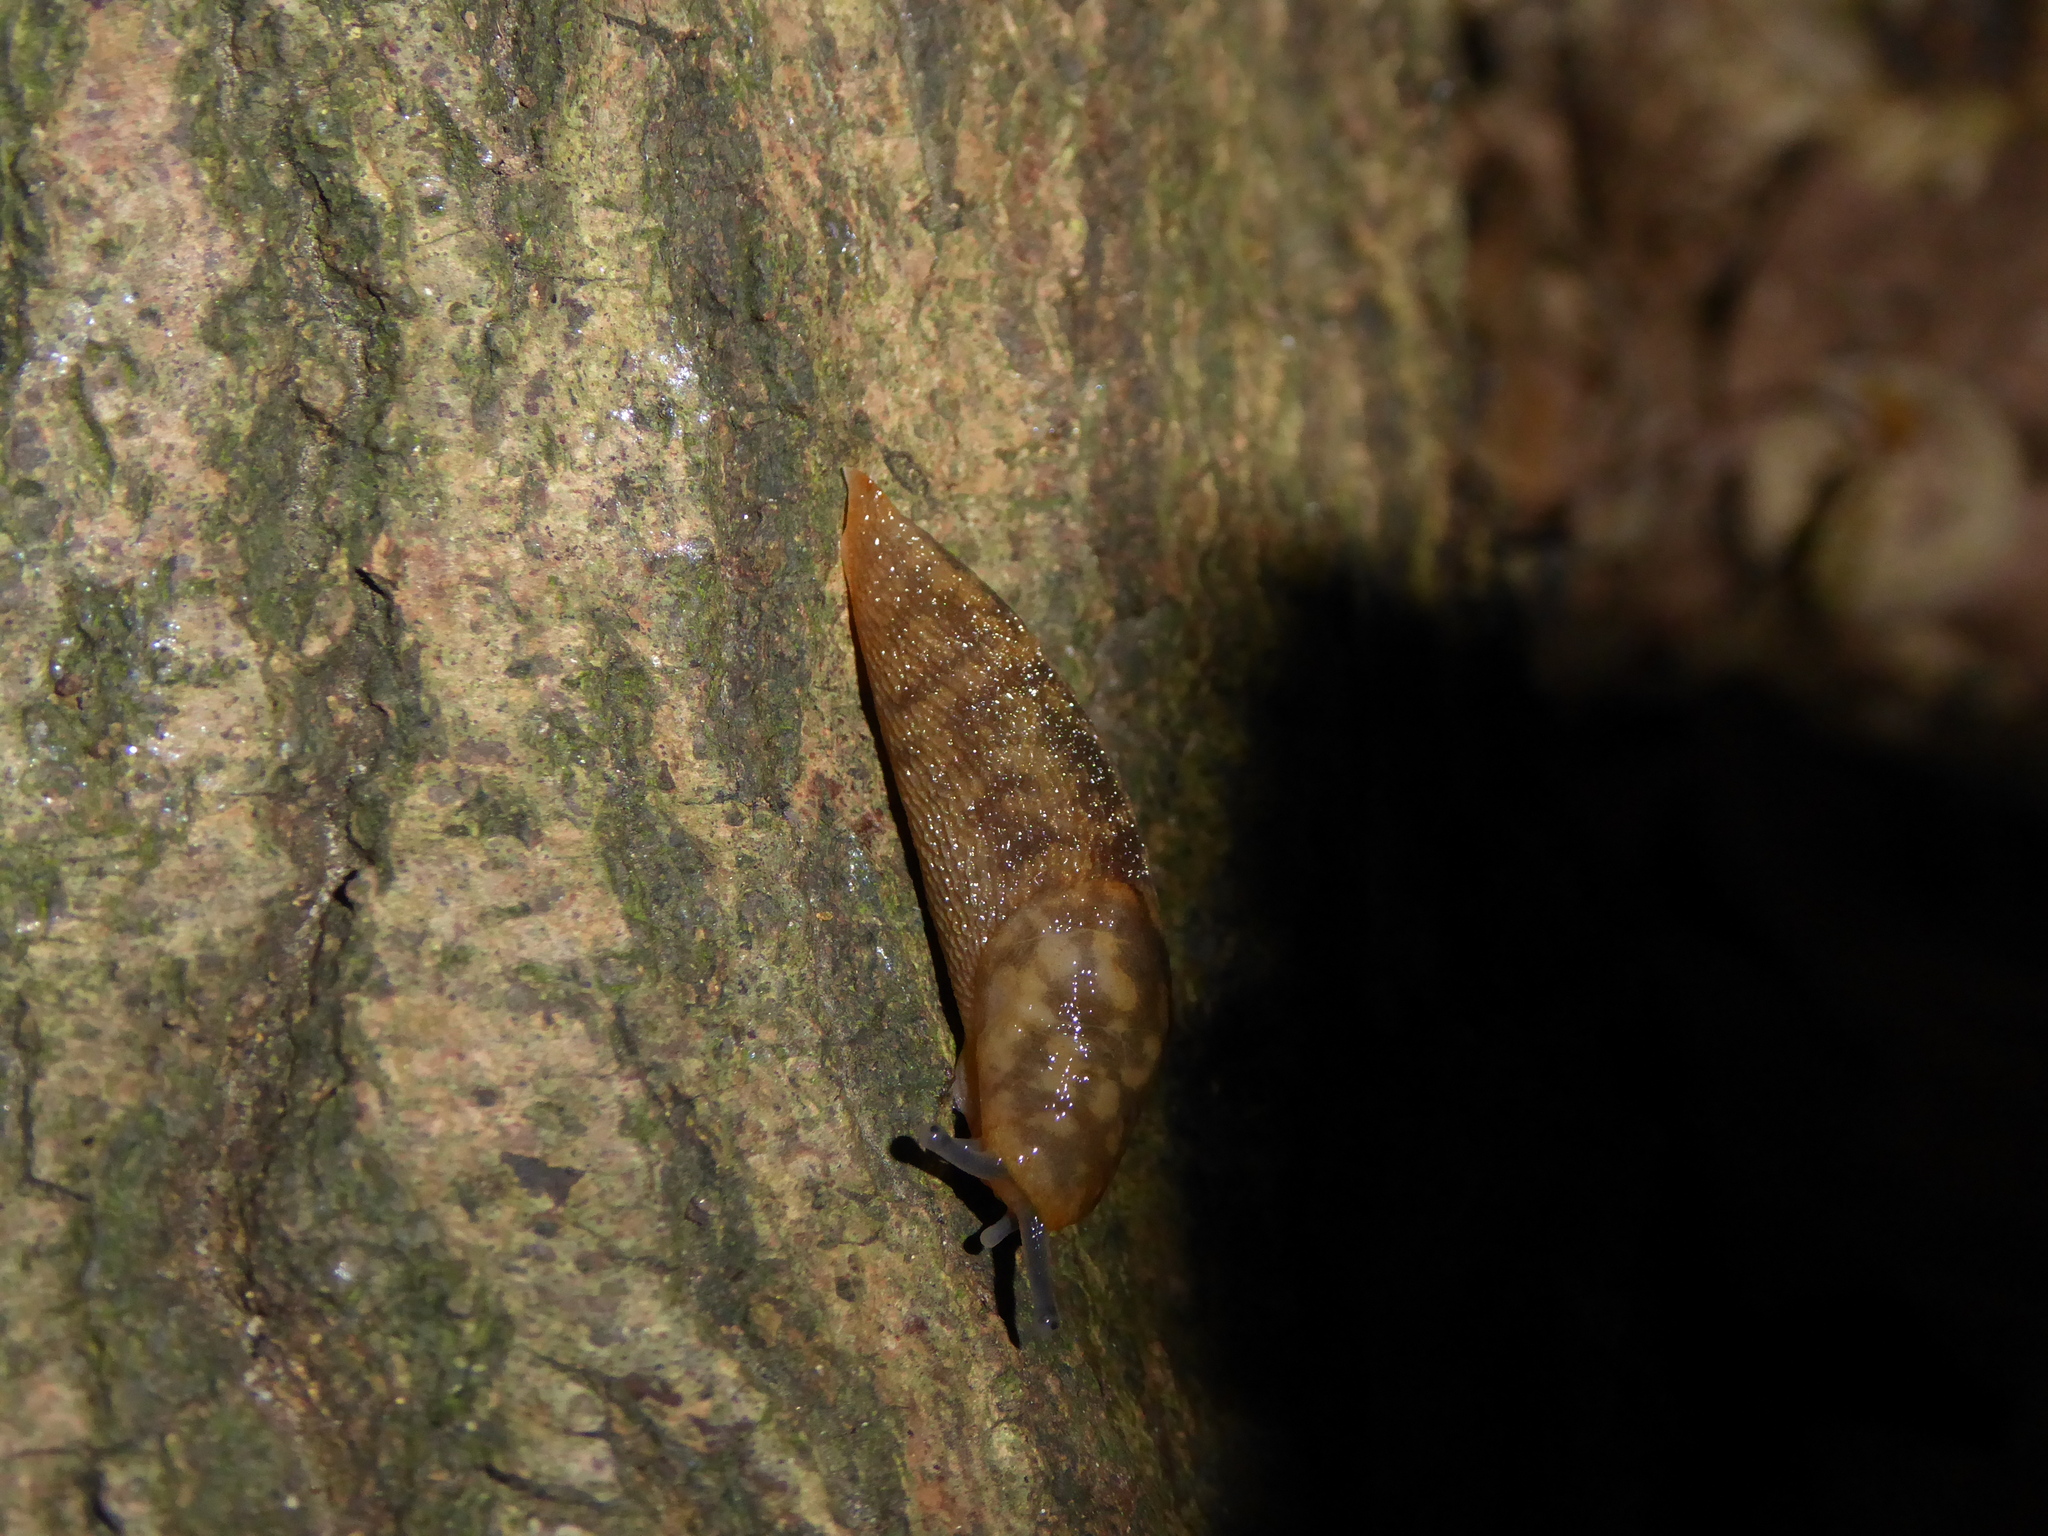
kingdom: Animalia
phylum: Mollusca
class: Gastropoda
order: Stylommatophora
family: Limacidae
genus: Limacus
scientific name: Limacus maculatus
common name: Irish yellow slug
